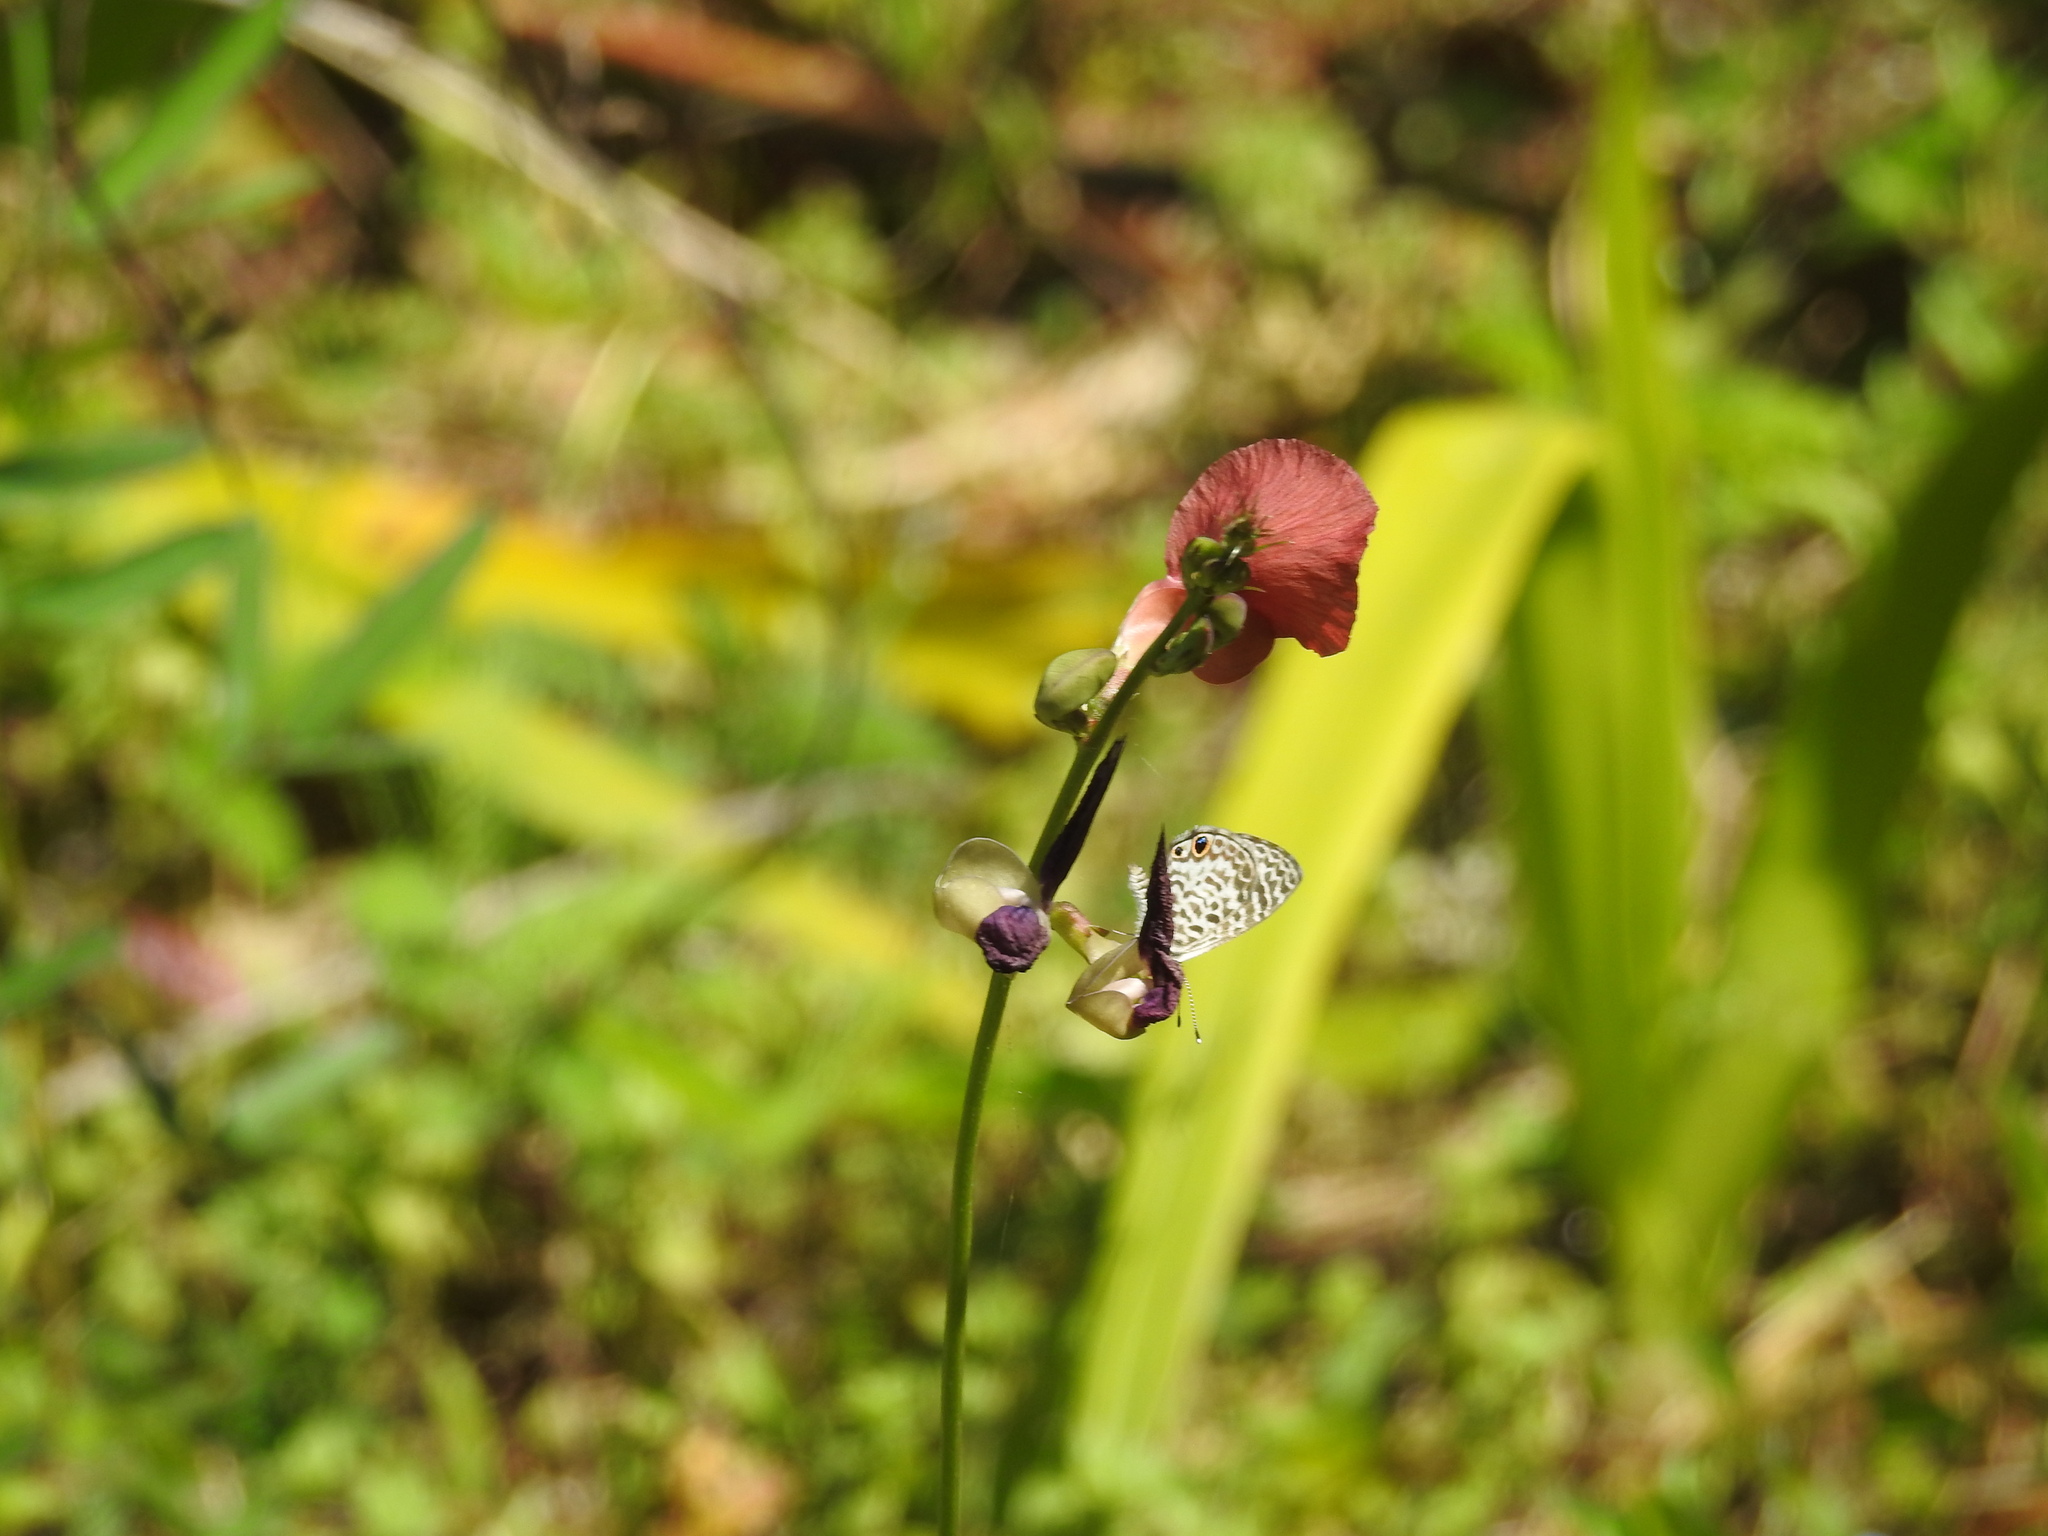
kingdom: Animalia
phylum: Arthropoda
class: Insecta
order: Lepidoptera
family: Lycaenidae
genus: Leptotes
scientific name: Leptotes cassius
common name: Cassius blue
